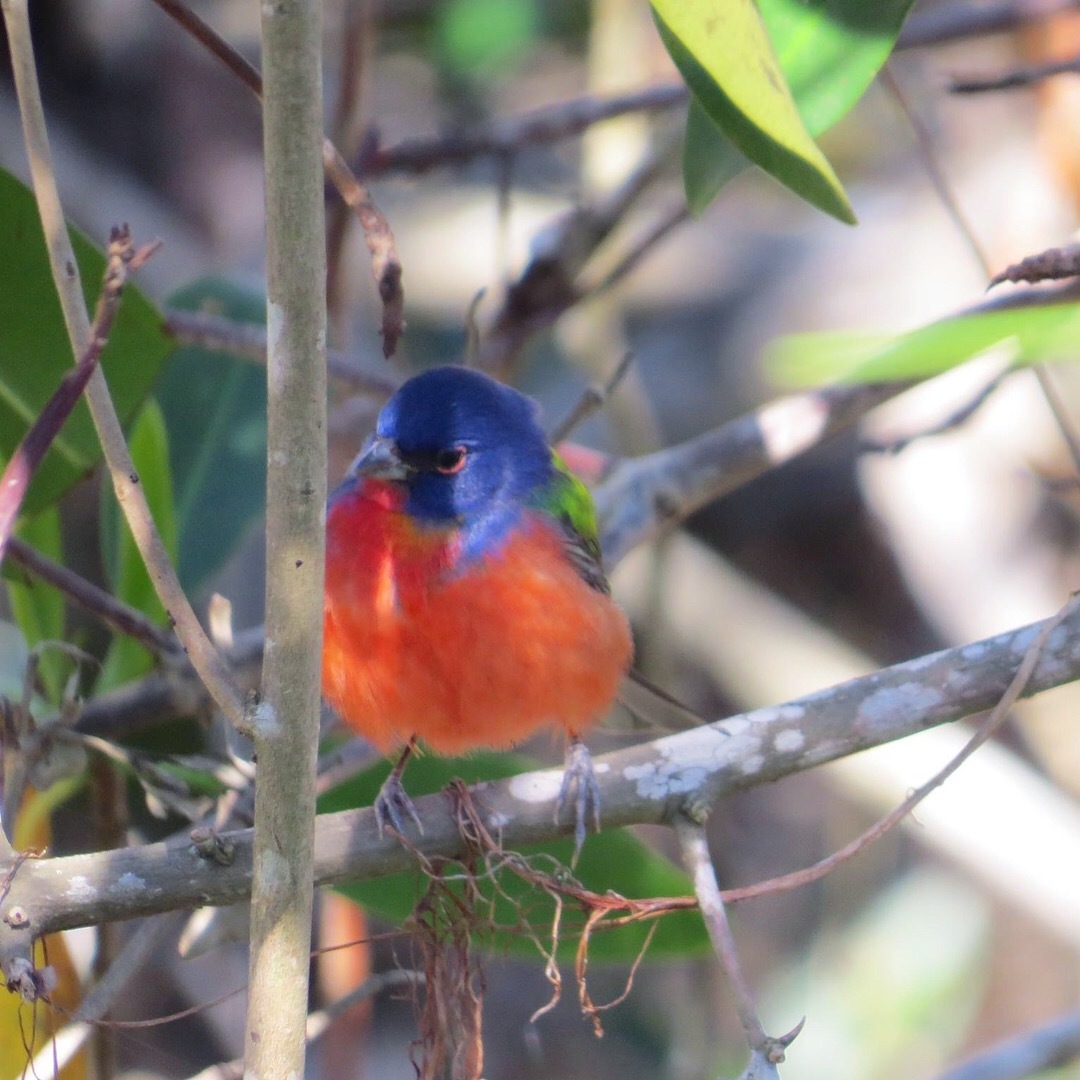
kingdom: Animalia
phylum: Chordata
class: Aves
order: Passeriformes
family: Cardinalidae
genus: Passerina
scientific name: Passerina ciris
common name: Painted bunting
